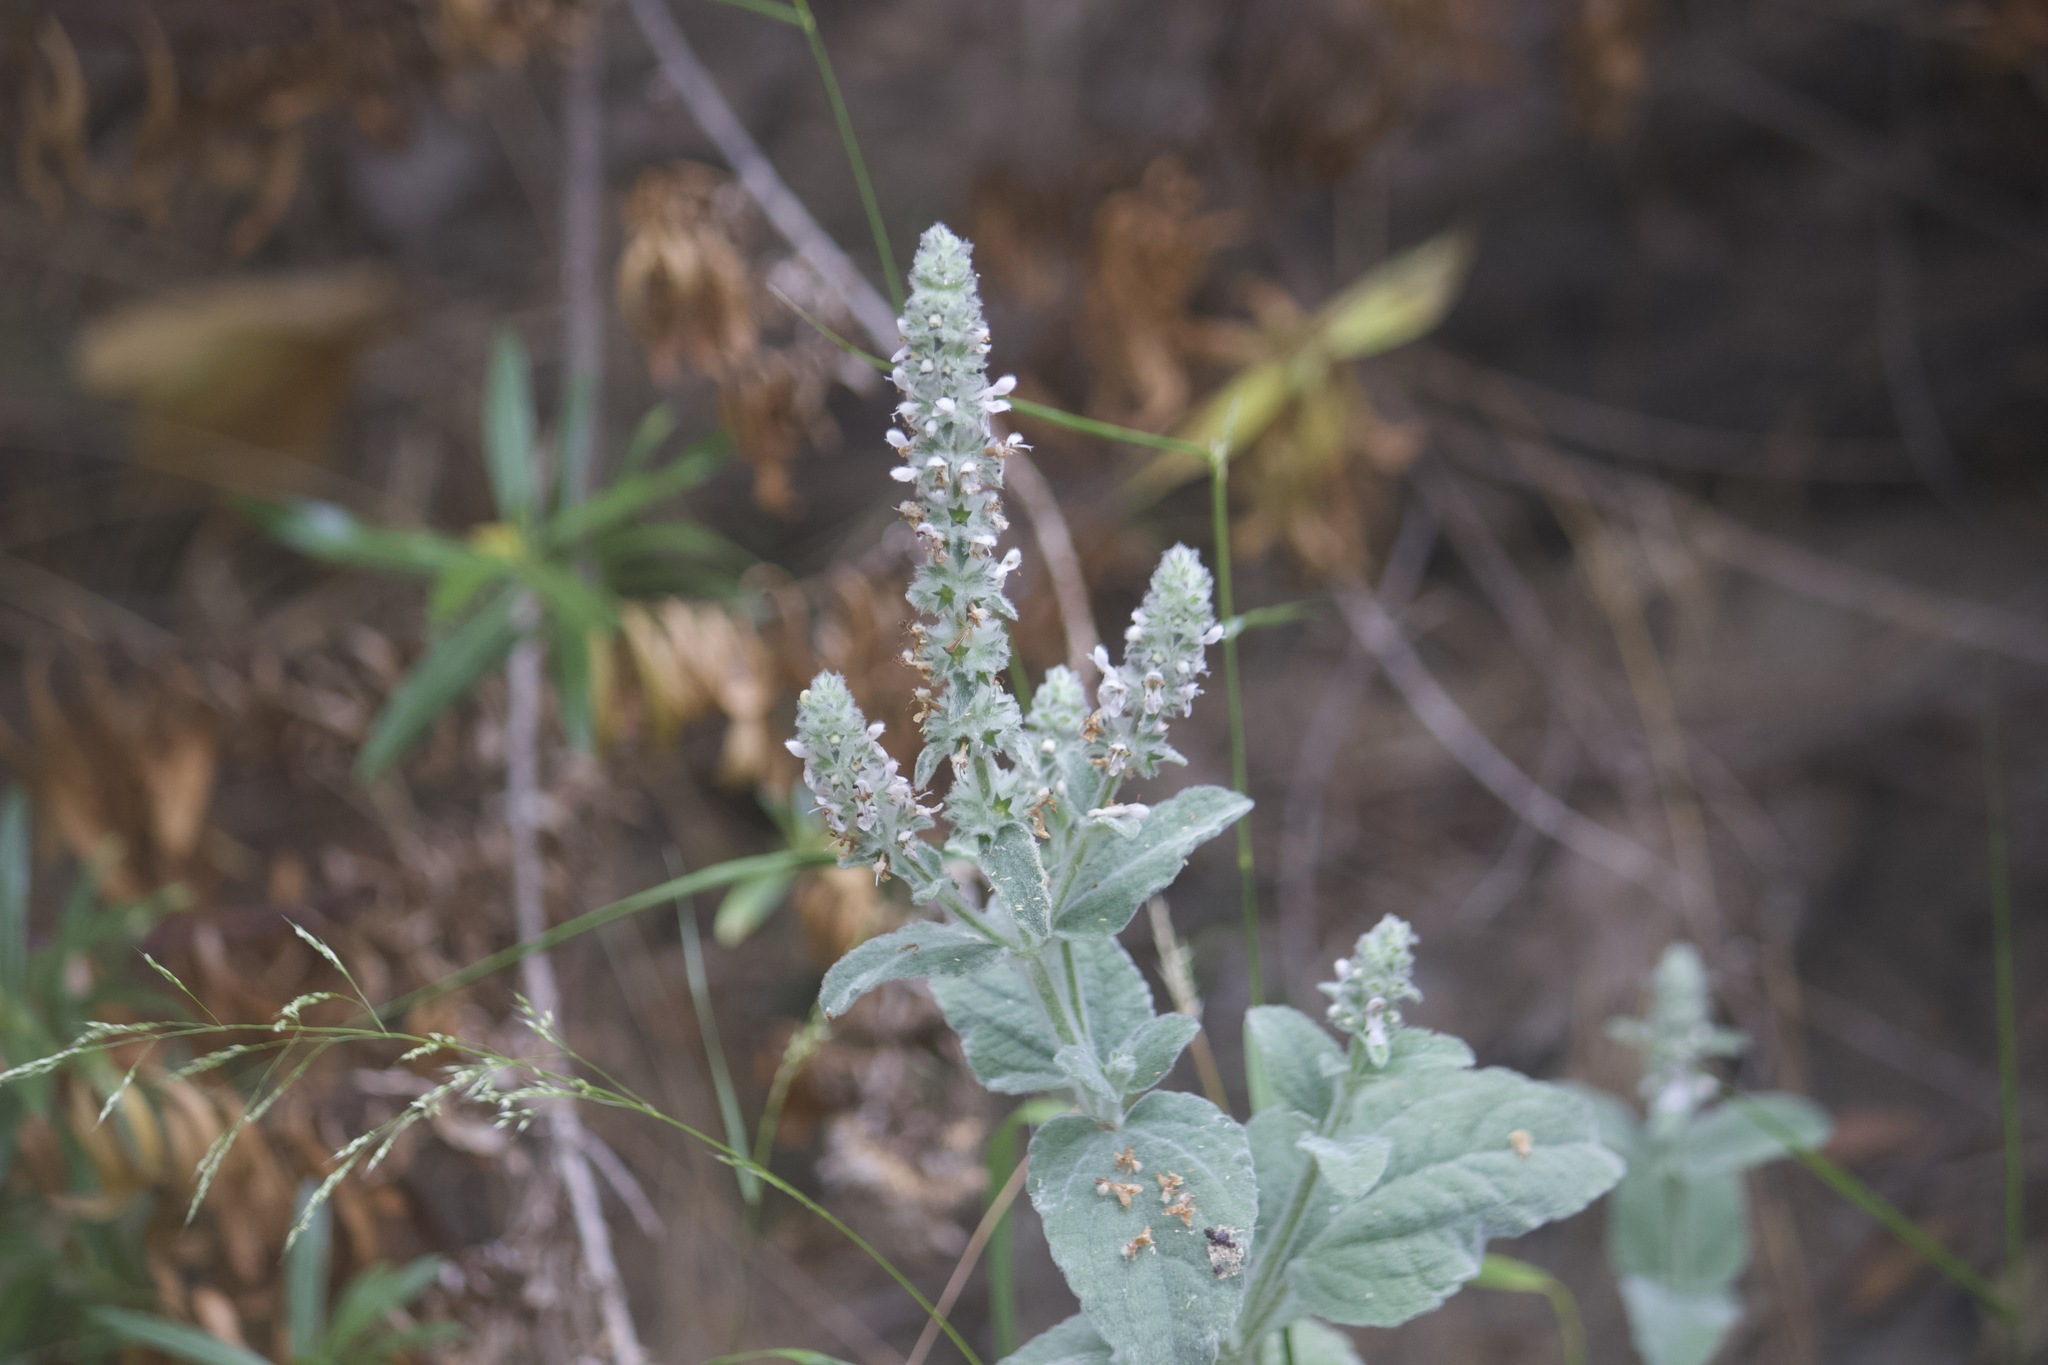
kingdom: Plantae
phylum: Tracheophyta
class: Magnoliopsida
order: Lamiales
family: Lamiaceae
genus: Stachys
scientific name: Stachys albens
